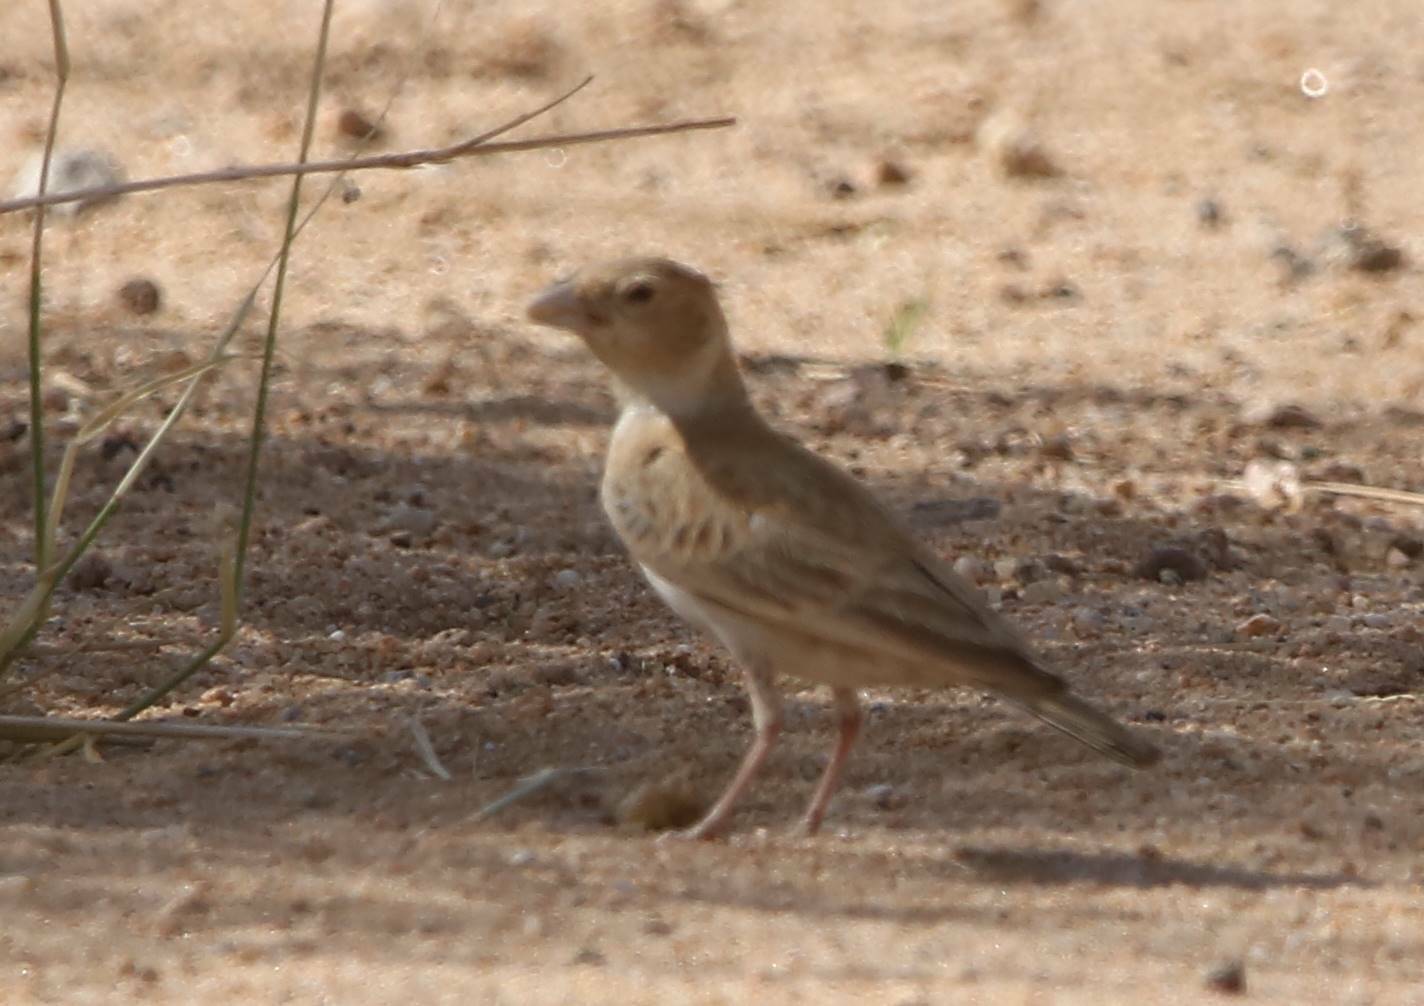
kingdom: Animalia
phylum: Chordata
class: Aves
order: Passeriformes
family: Alaudidae
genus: Eremopterix
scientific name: Eremopterix nigriceps
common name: Black-crowned sparrow-lark
